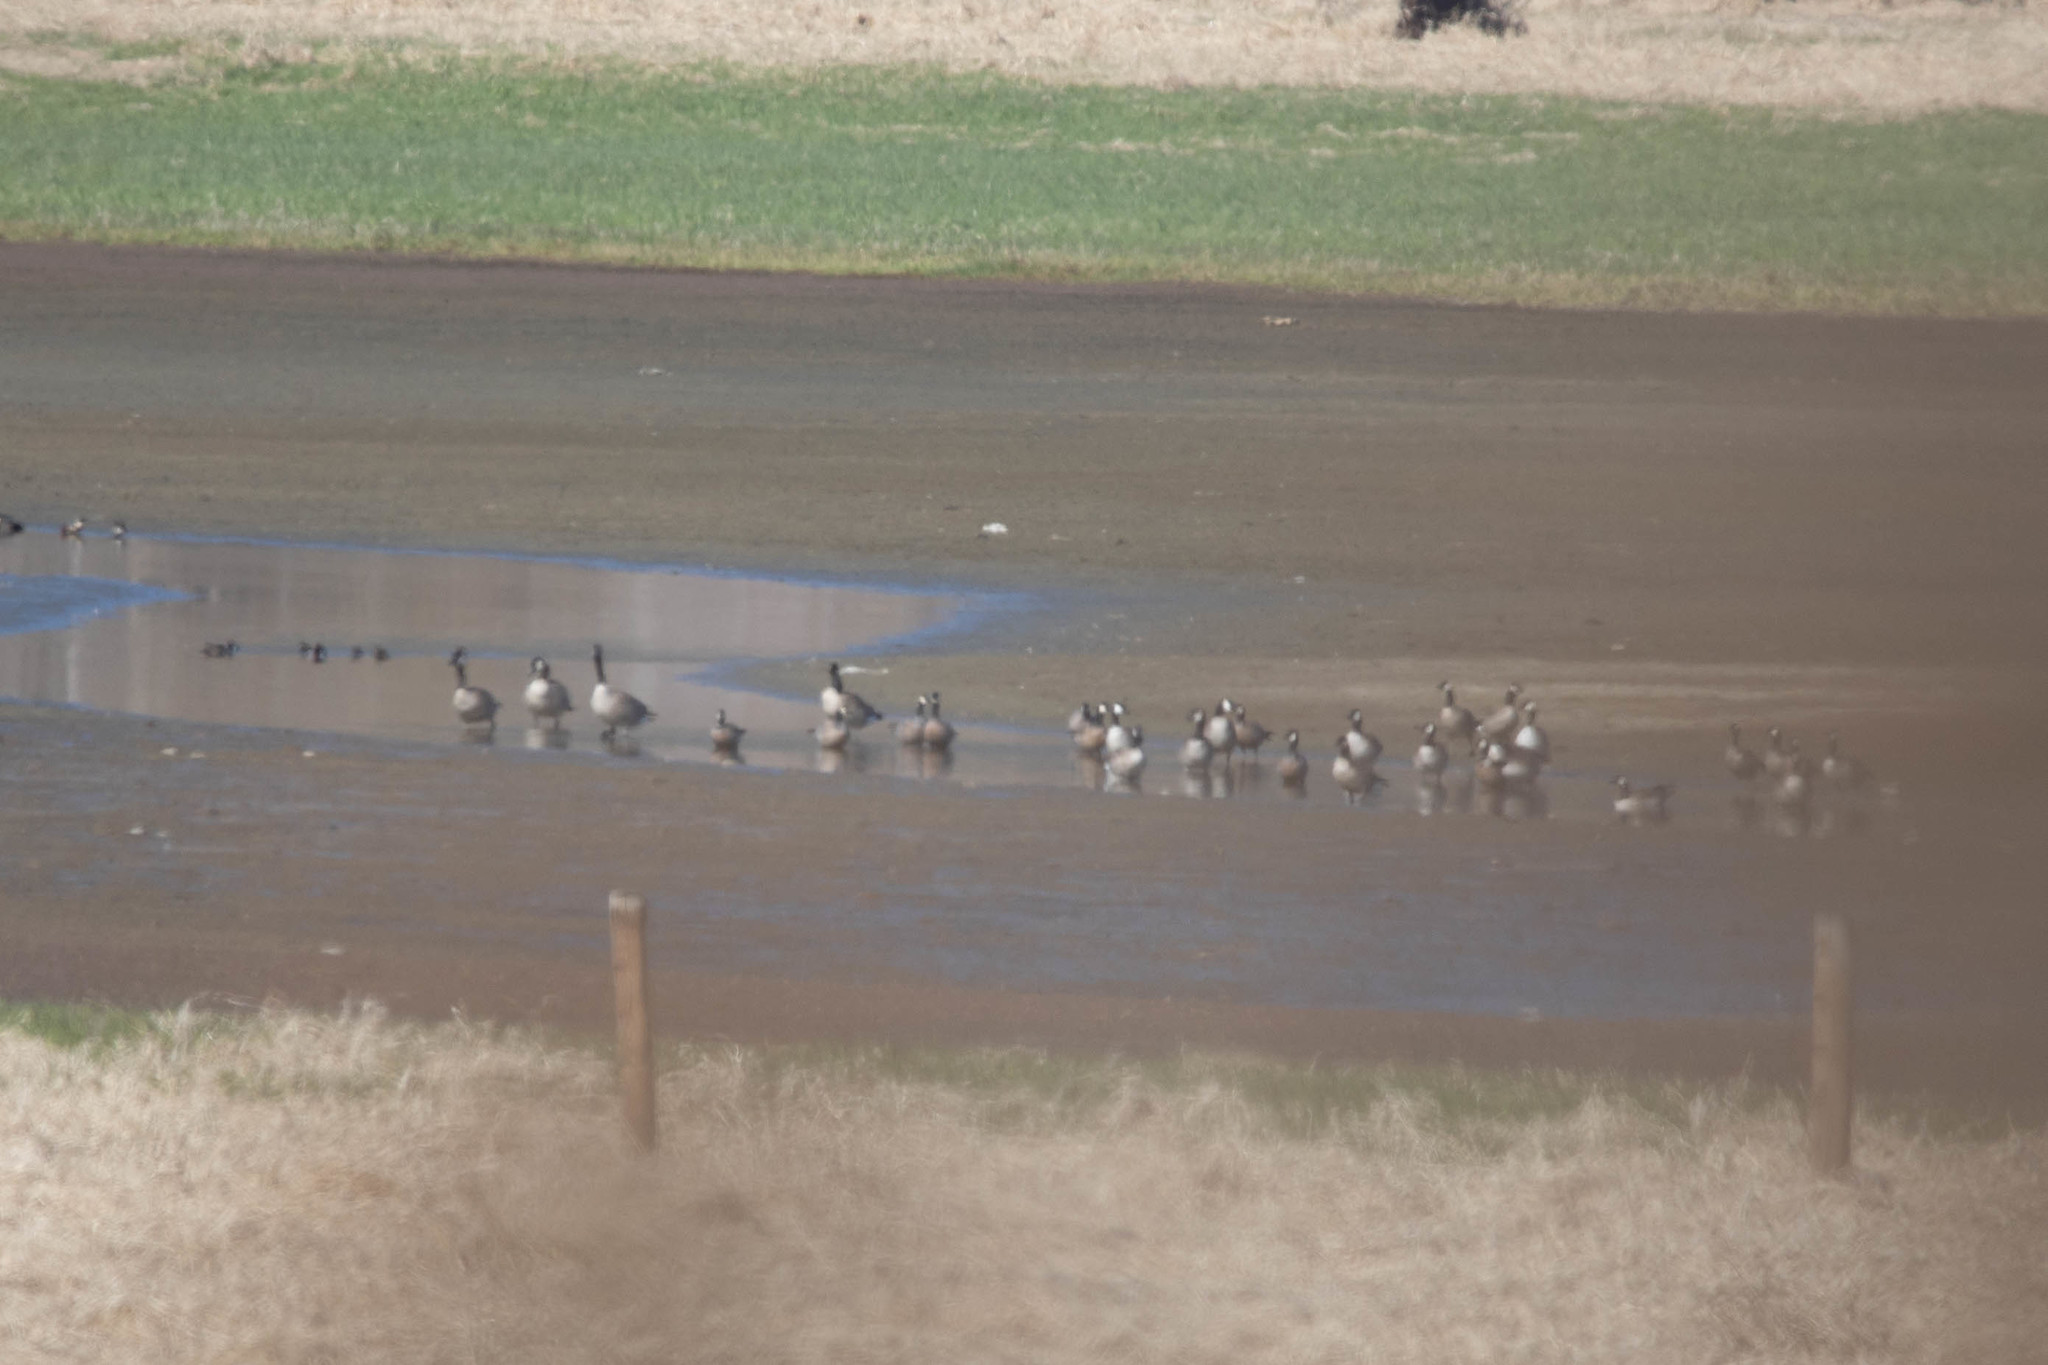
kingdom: Animalia
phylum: Chordata
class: Aves
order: Anseriformes
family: Anatidae
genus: Branta
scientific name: Branta hutchinsii
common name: Cackling goose
